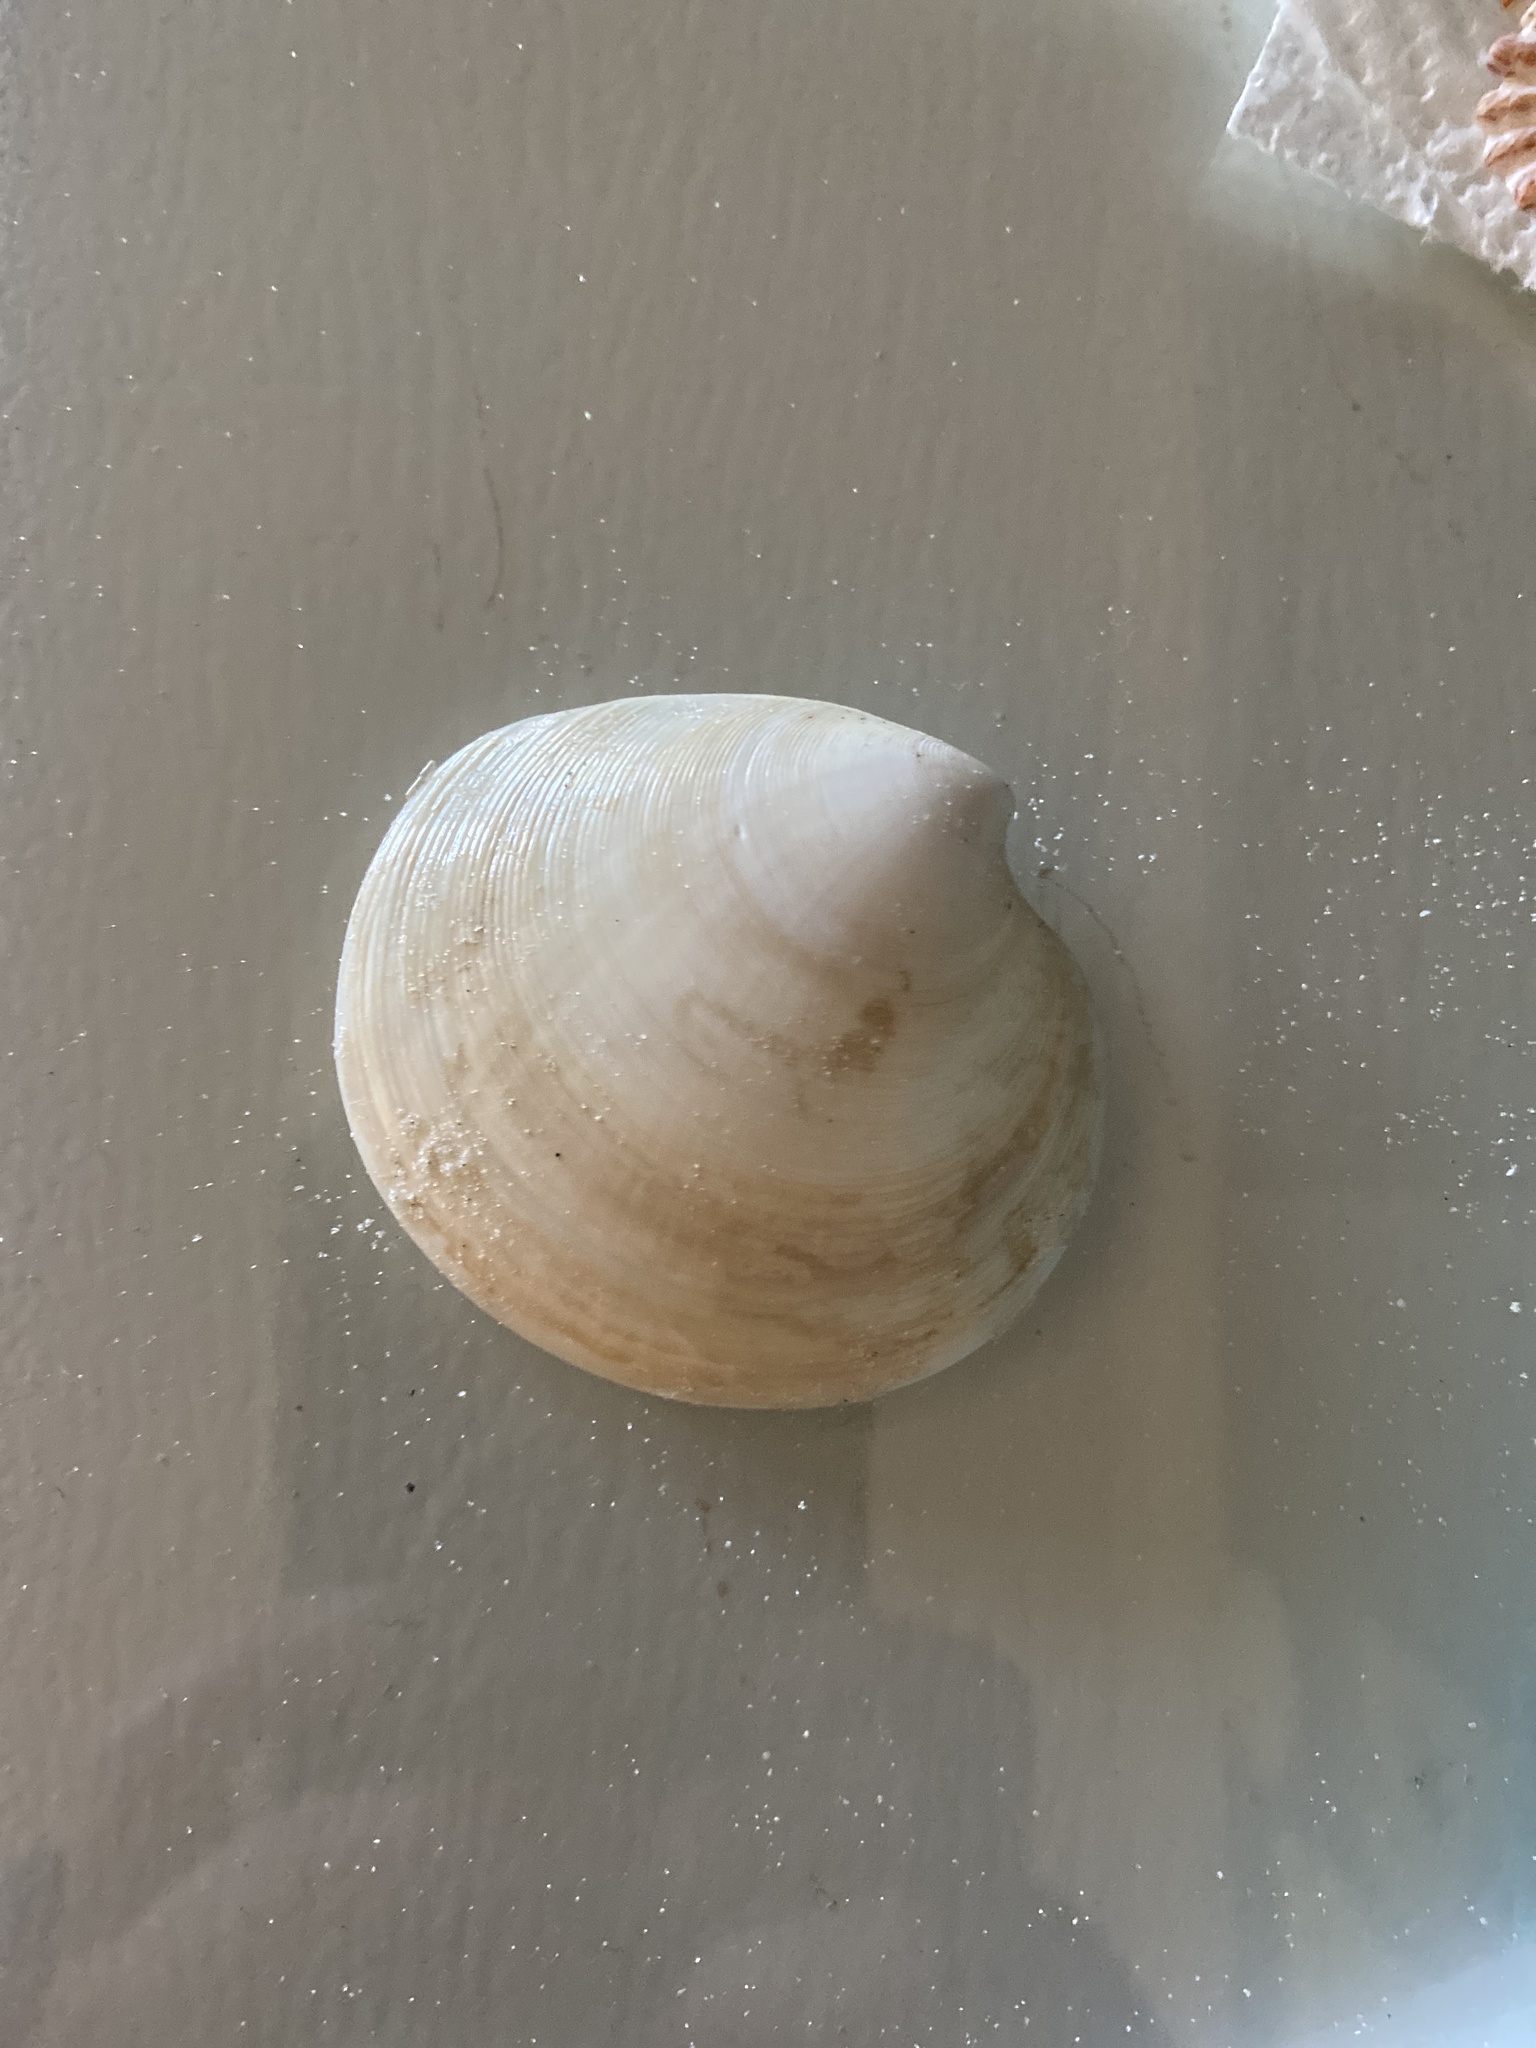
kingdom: Animalia
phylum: Mollusca
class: Bivalvia
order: Venerida
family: Veneridae
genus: Dosinia
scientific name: Dosinia discus
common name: Disk dosinia
